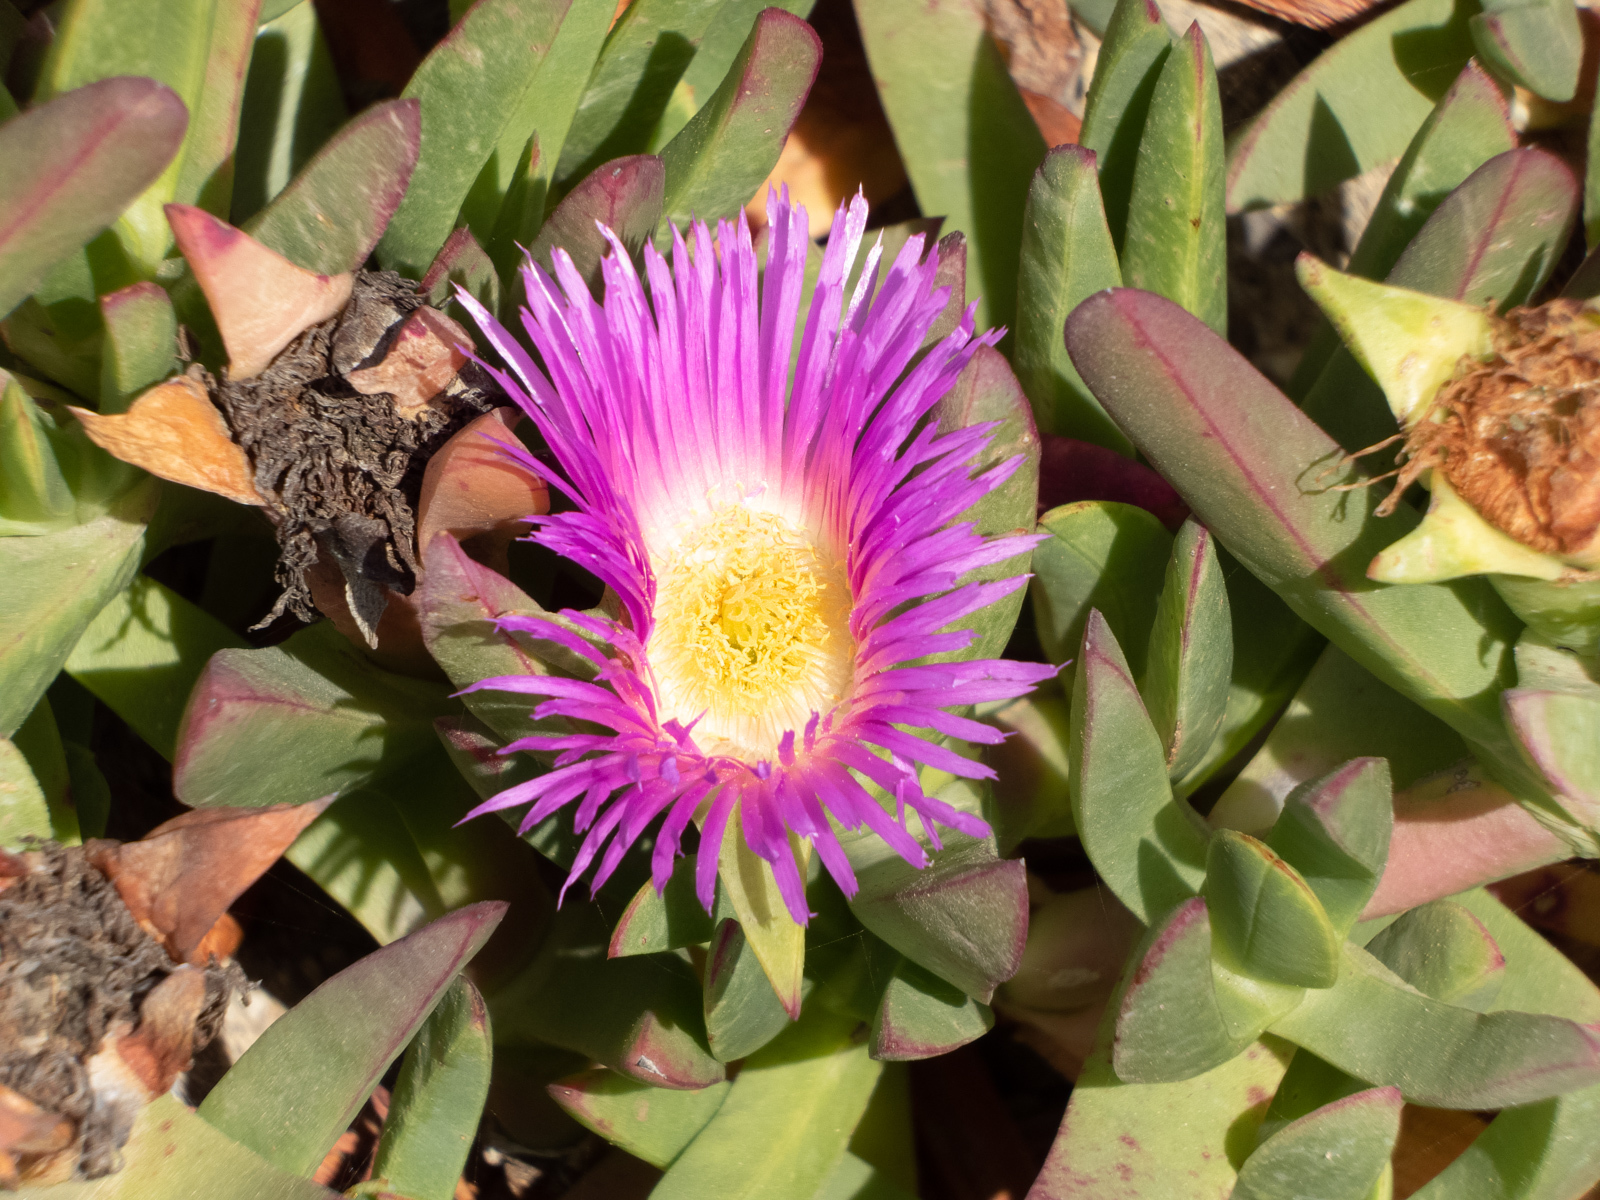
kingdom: Plantae
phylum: Tracheophyta
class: Magnoliopsida
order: Caryophyllales
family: Aizoaceae
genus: Carpobrotus
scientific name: Carpobrotus chilensis
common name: Sea fig
